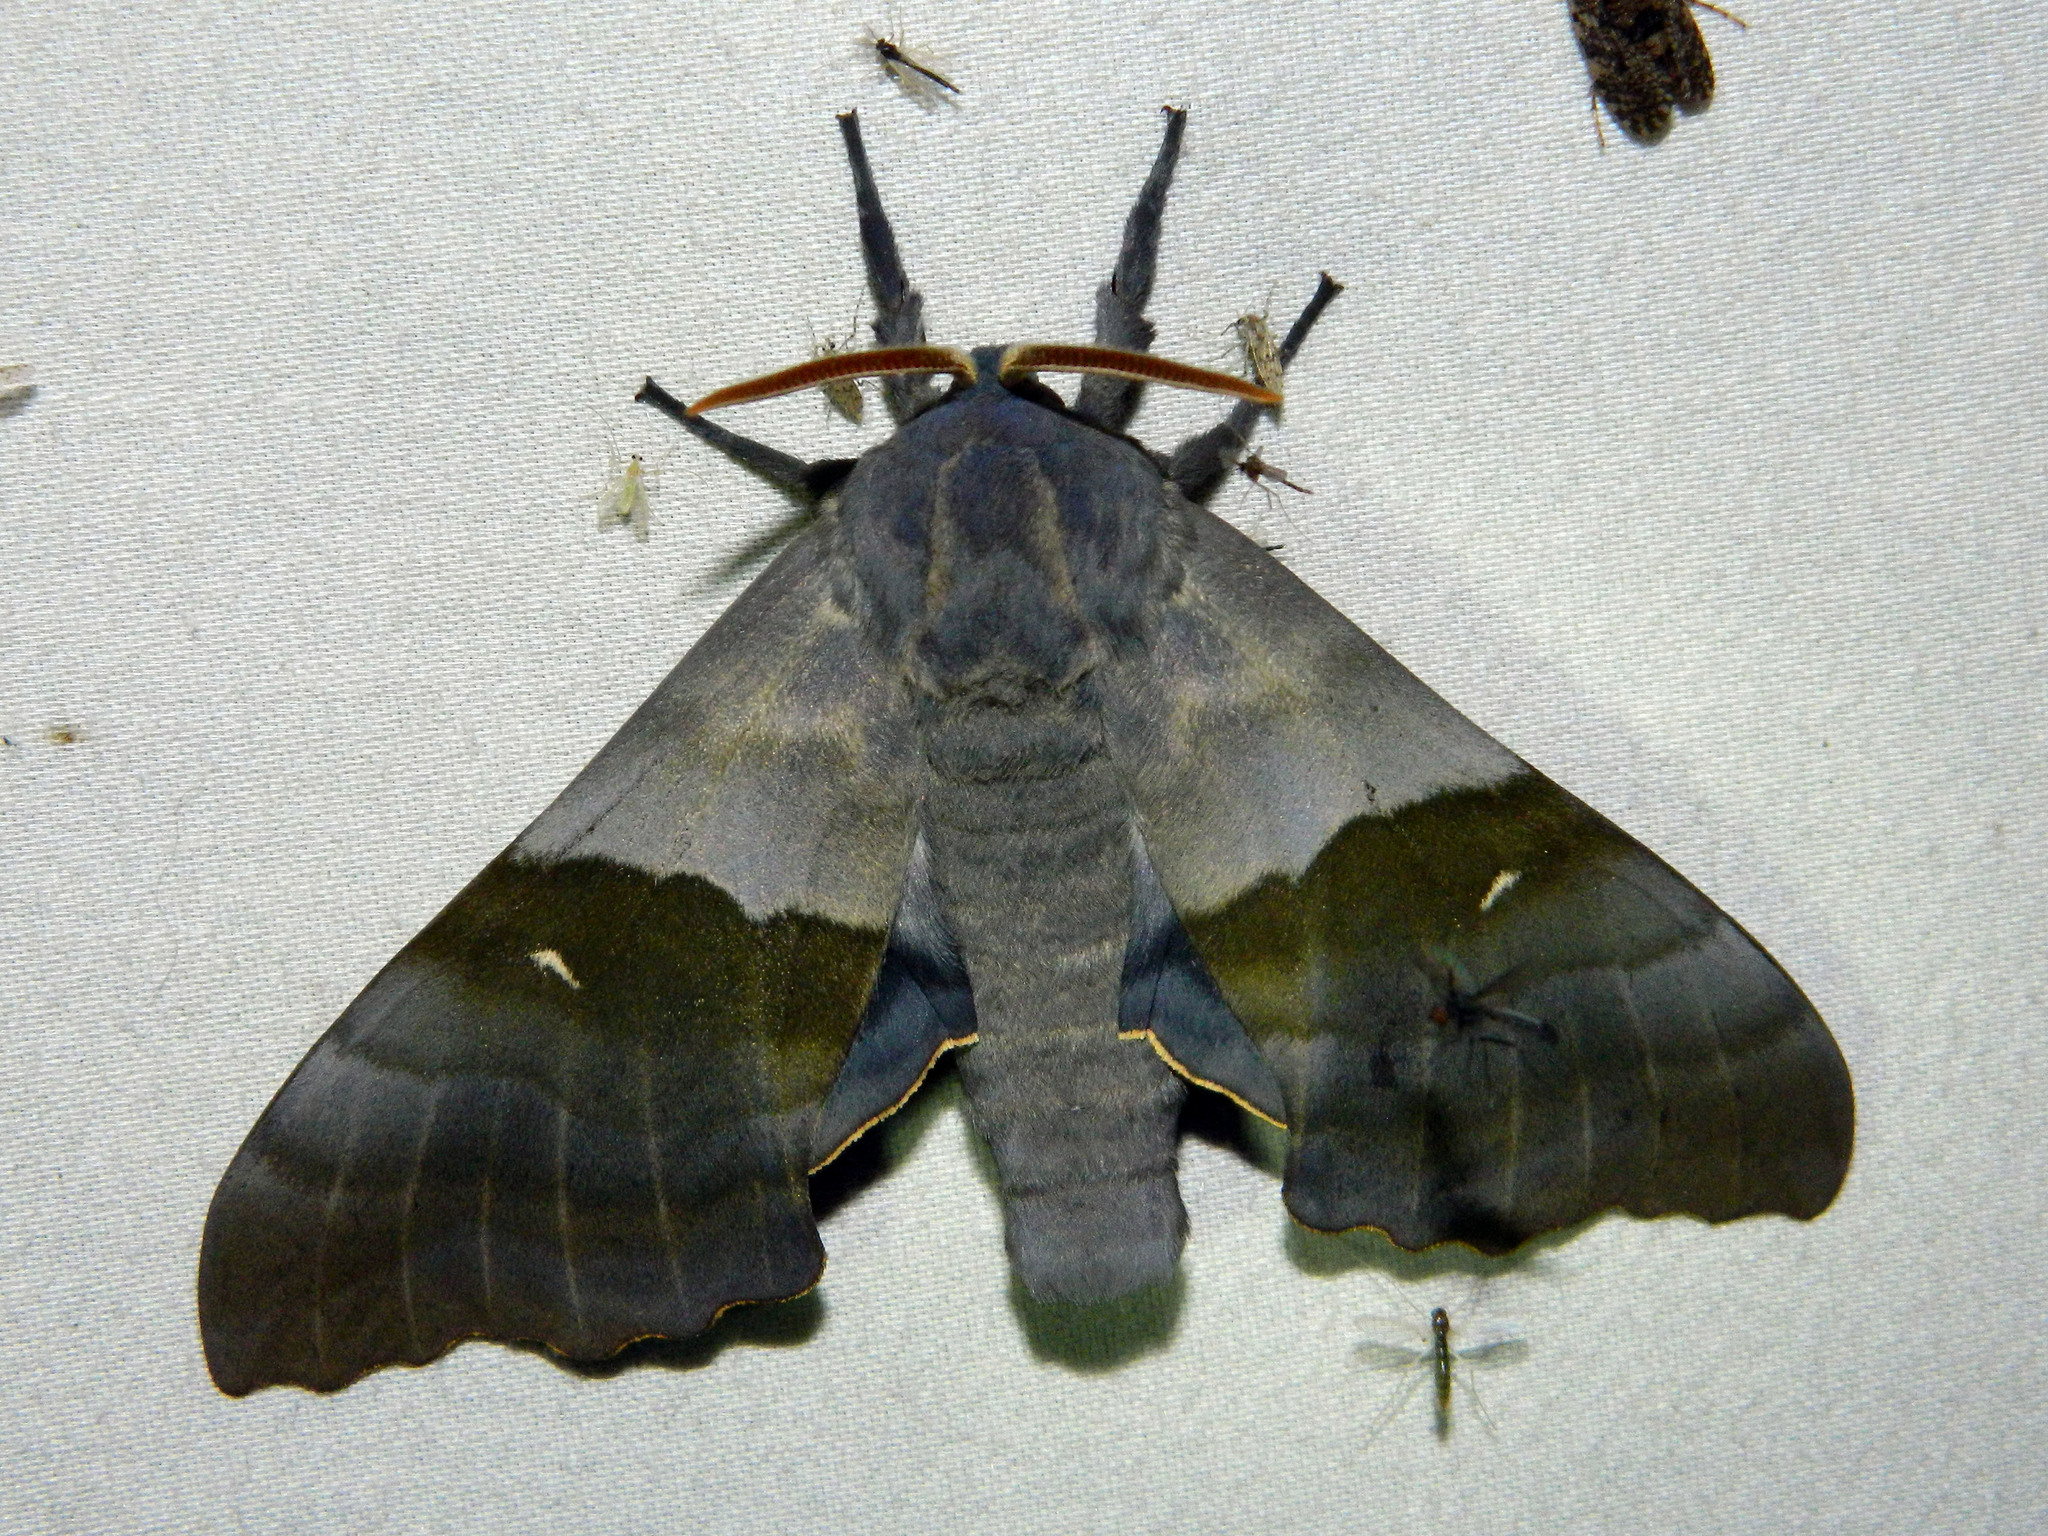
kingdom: Animalia
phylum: Arthropoda
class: Insecta
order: Lepidoptera
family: Sphingidae
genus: Pachysphinx
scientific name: Pachysphinx modesta
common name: Big poplar sphinx
